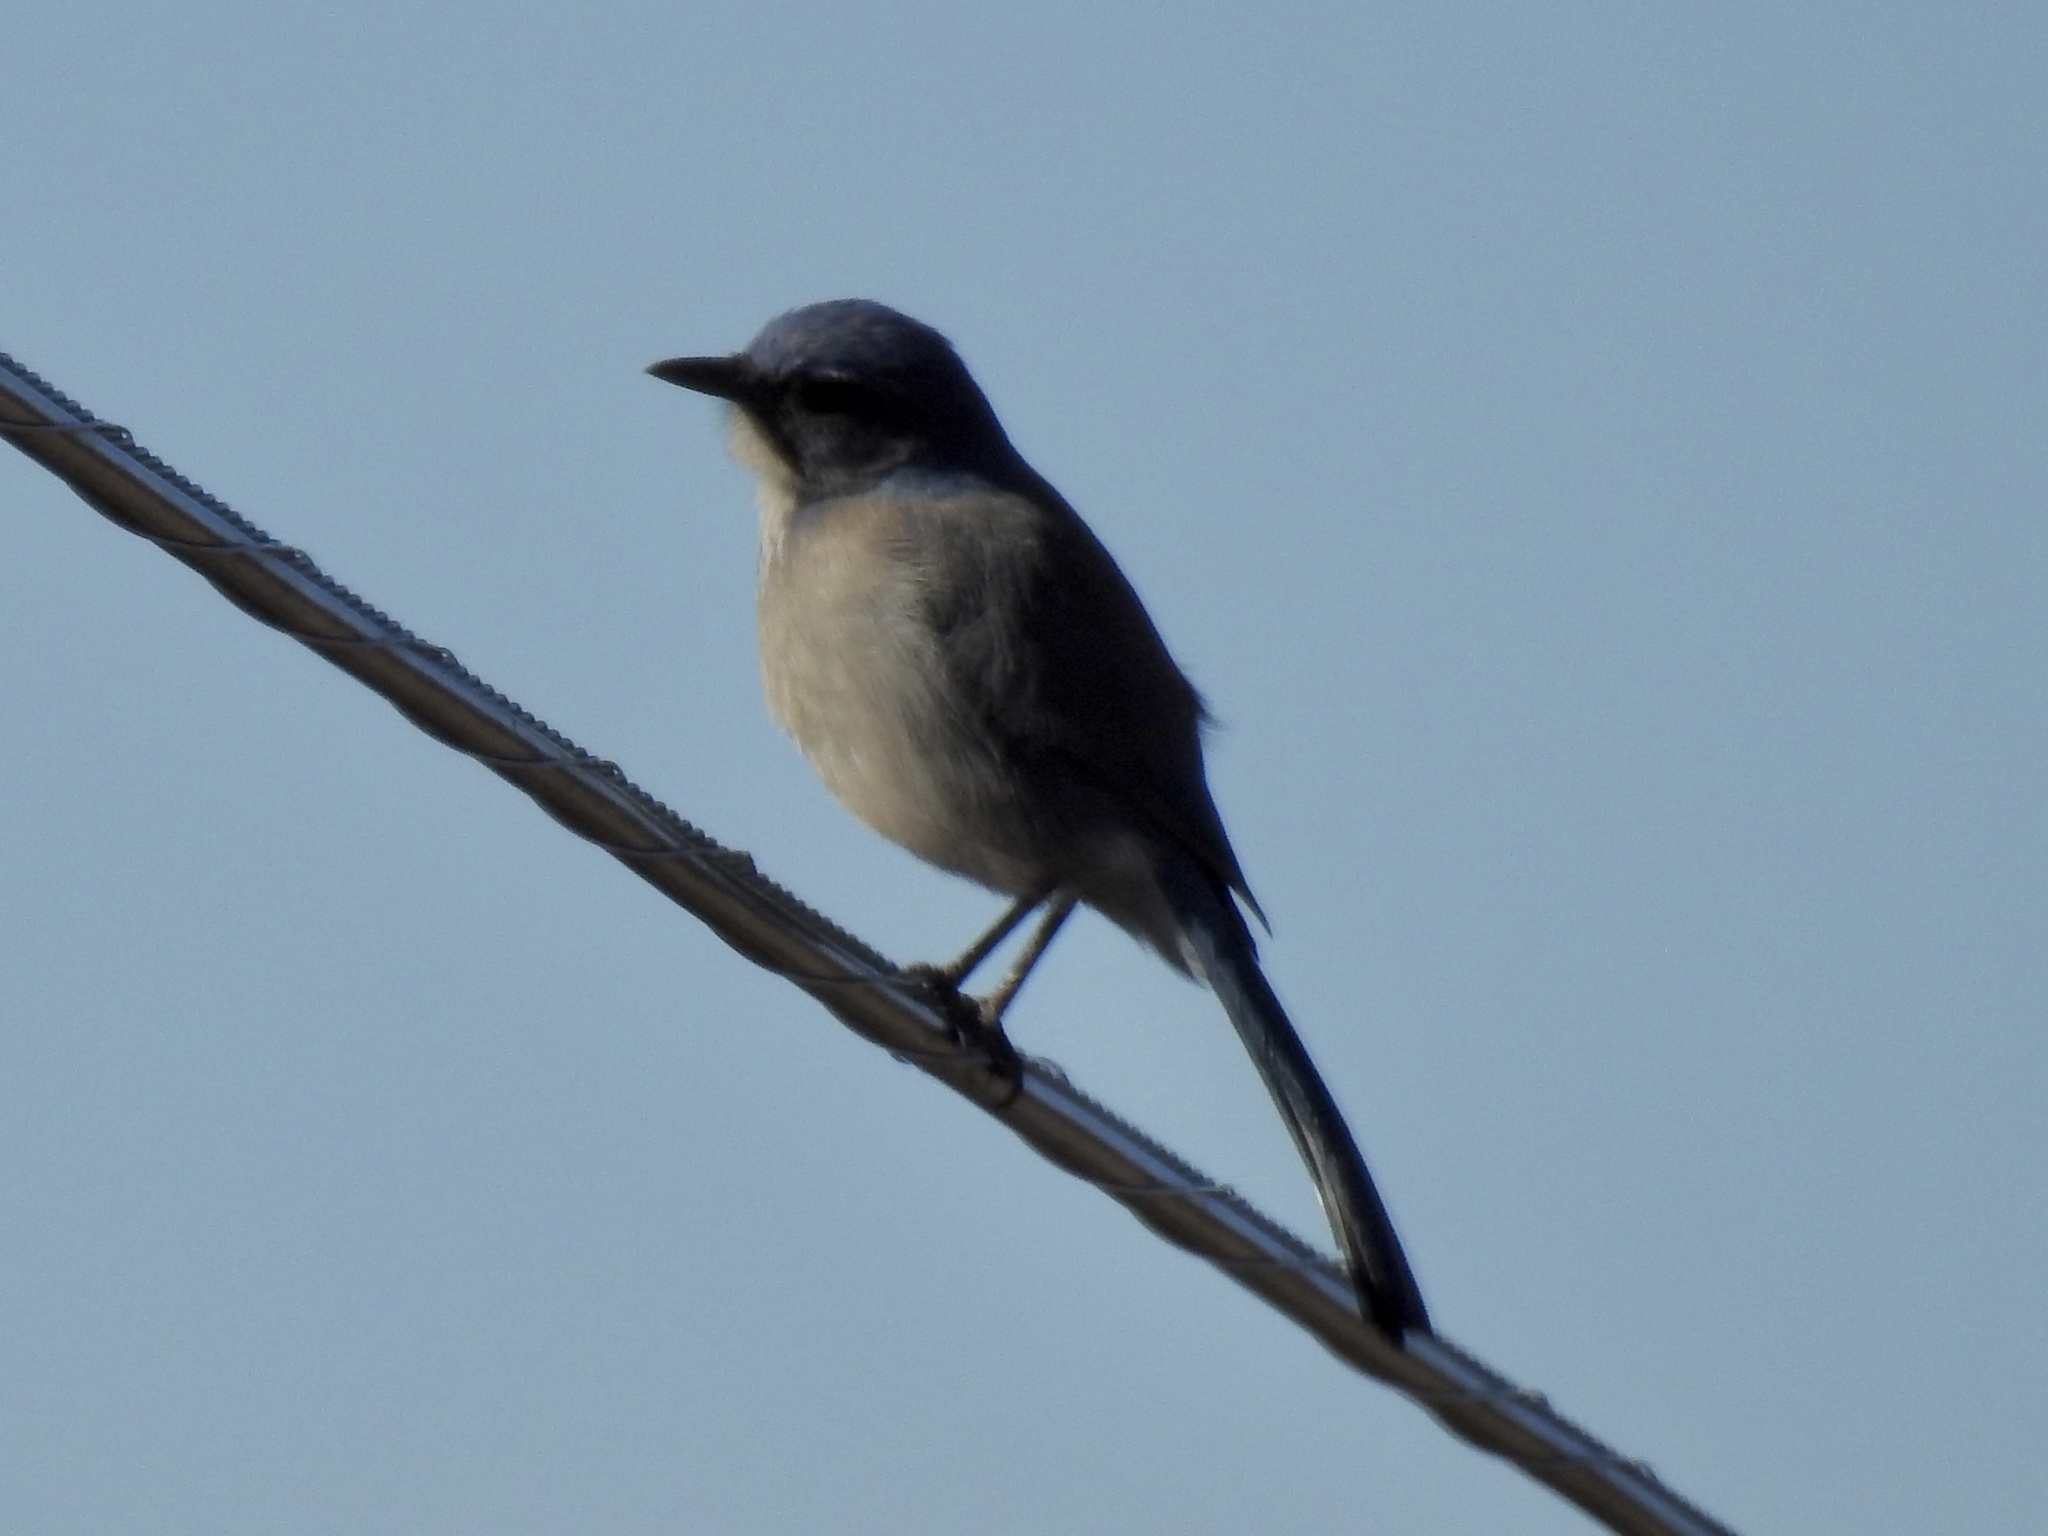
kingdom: Animalia
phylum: Chordata
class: Aves
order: Passeriformes
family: Corvidae
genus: Aphelocoma
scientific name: Aphelocoma woodhouseii
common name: Woodhouse's scrub-jay
